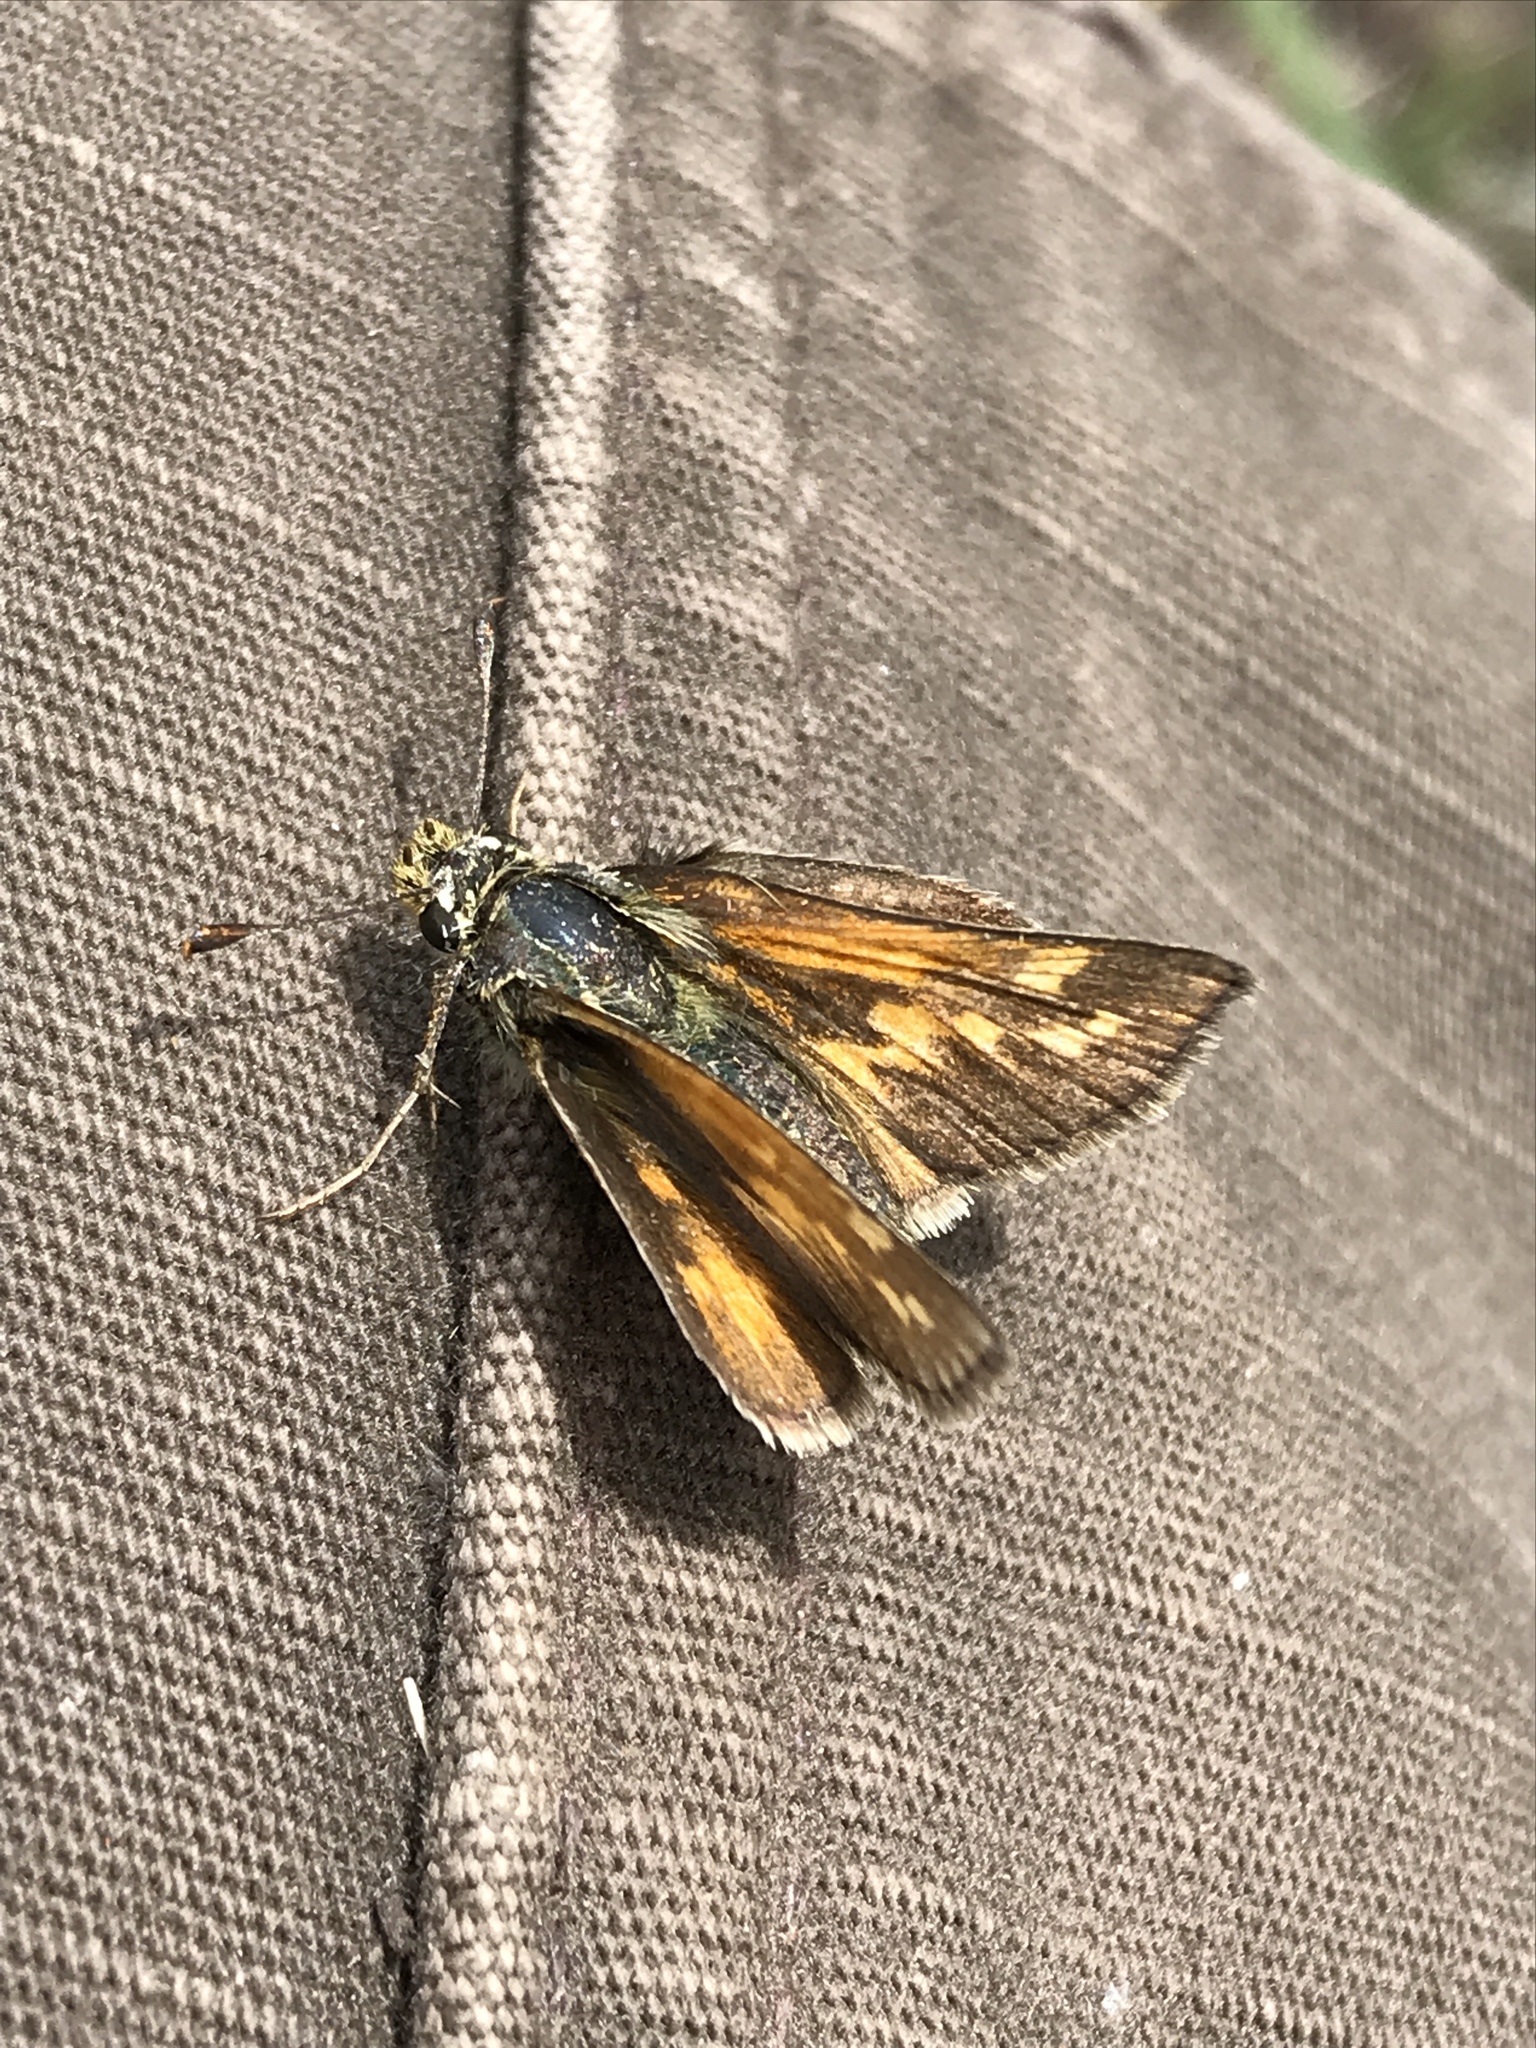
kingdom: Animalia
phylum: Arthropoda
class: Insecta
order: Lepidoptera
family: Hesperiidae
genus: Polites
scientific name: Polites sabuleti
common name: Sandhill skipper
